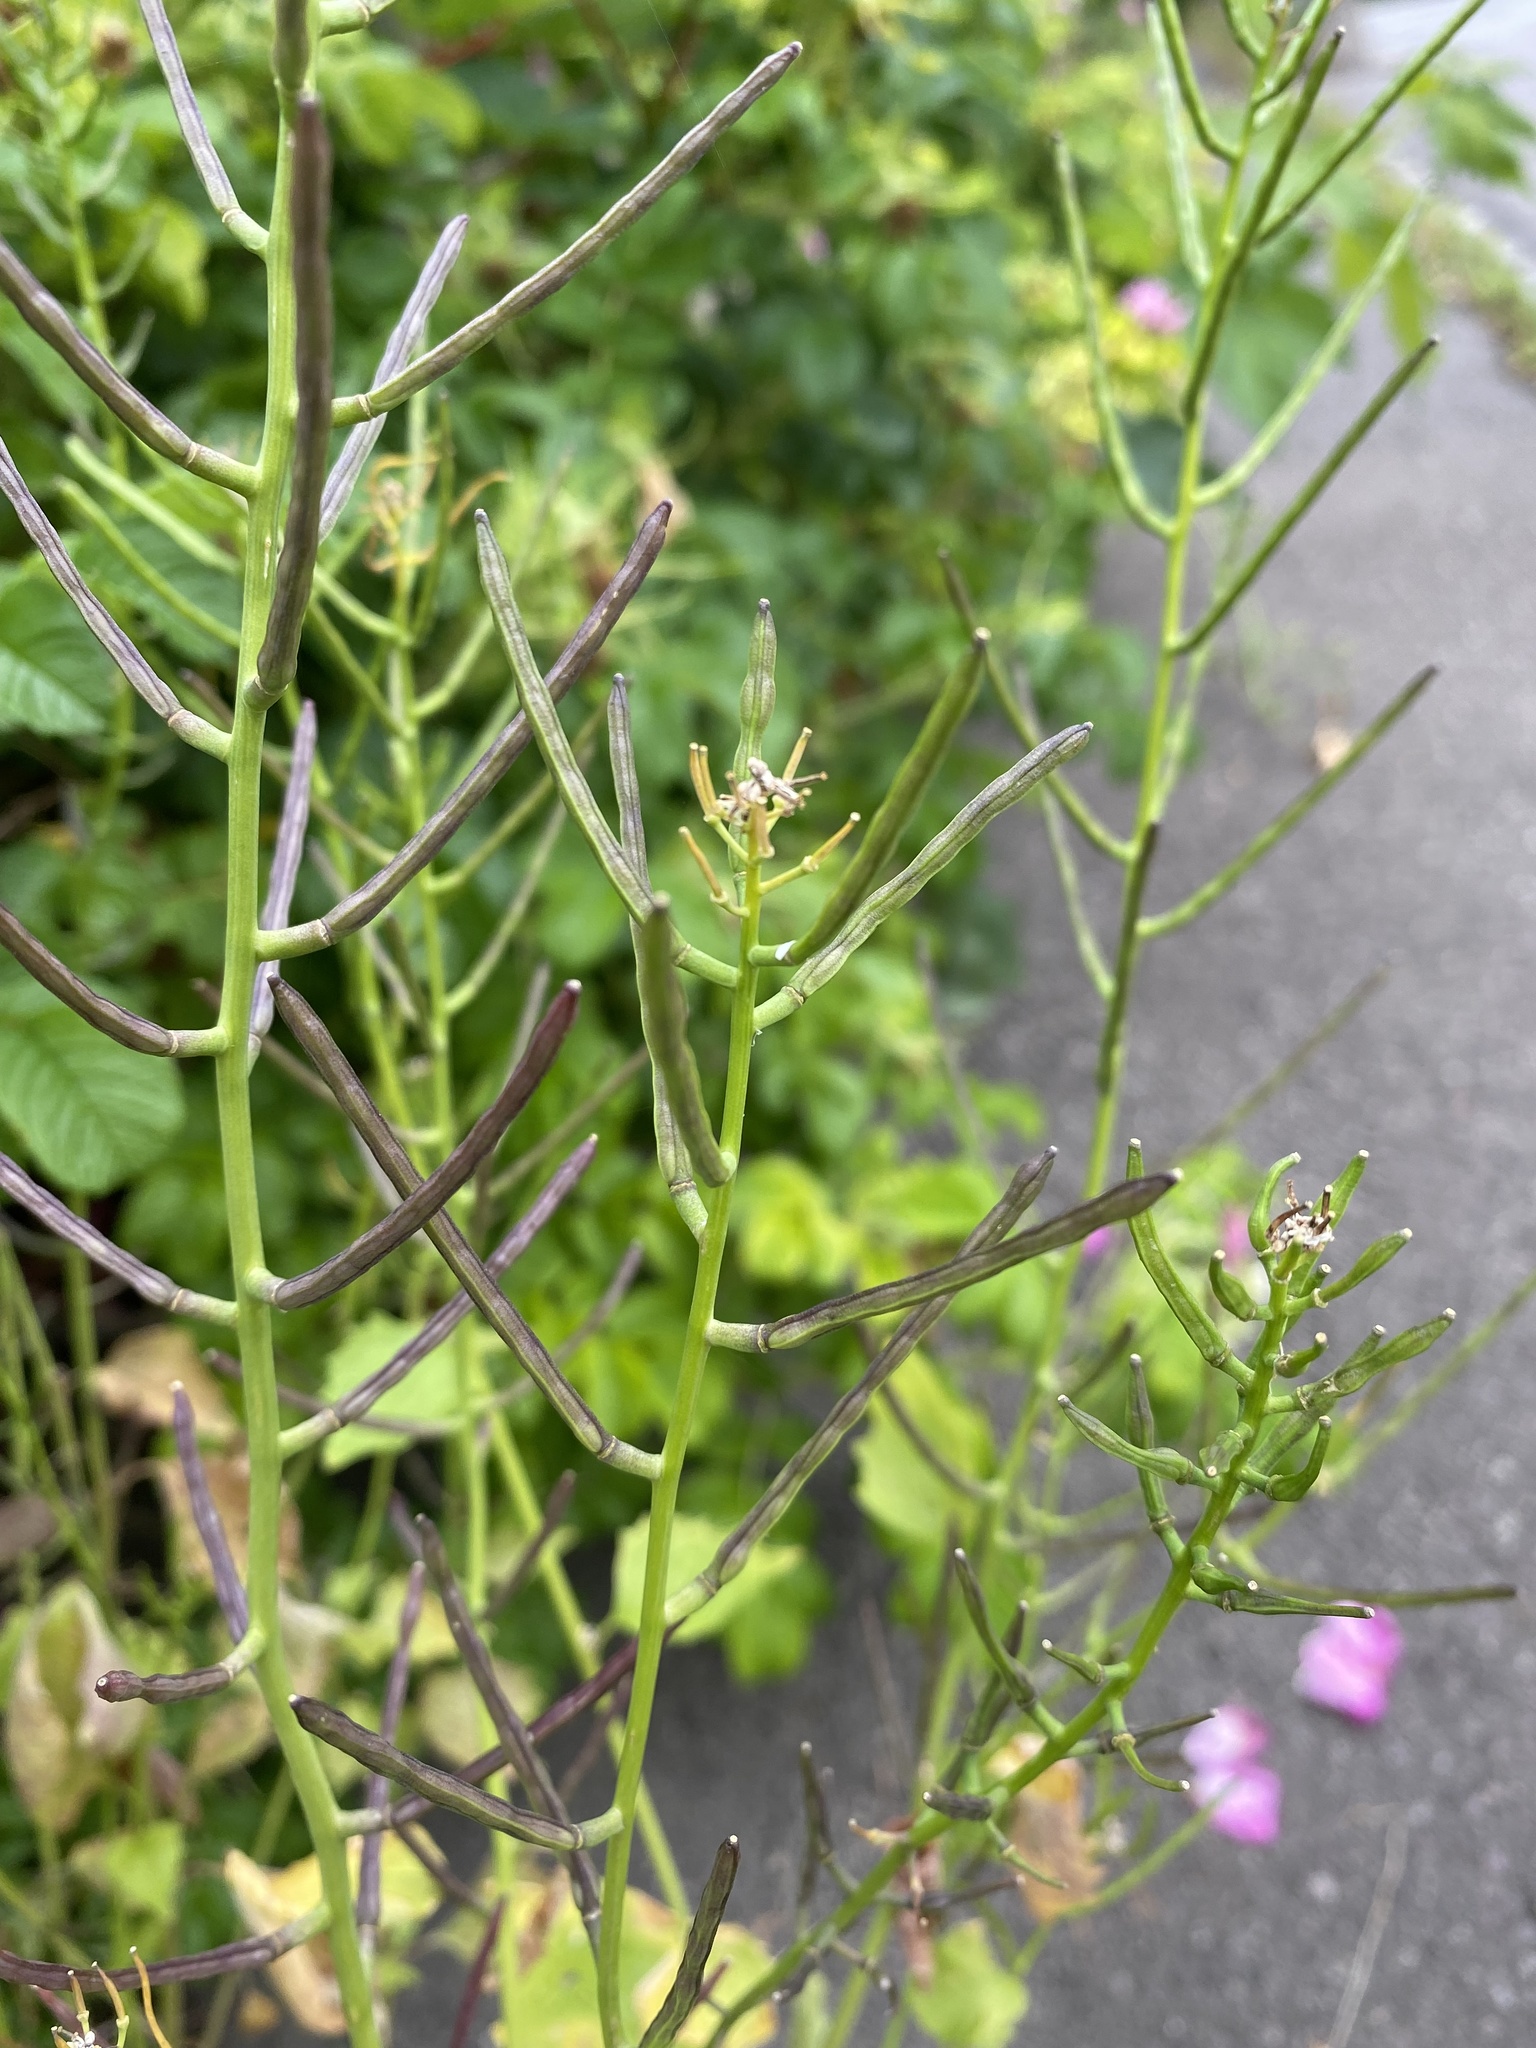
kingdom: Plantae
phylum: Tracheophyta
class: Magnoliopsida
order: Brassicales
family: Brassicaceae
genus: Alliaria
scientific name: Alliaria petiolata
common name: Garlic mustard
